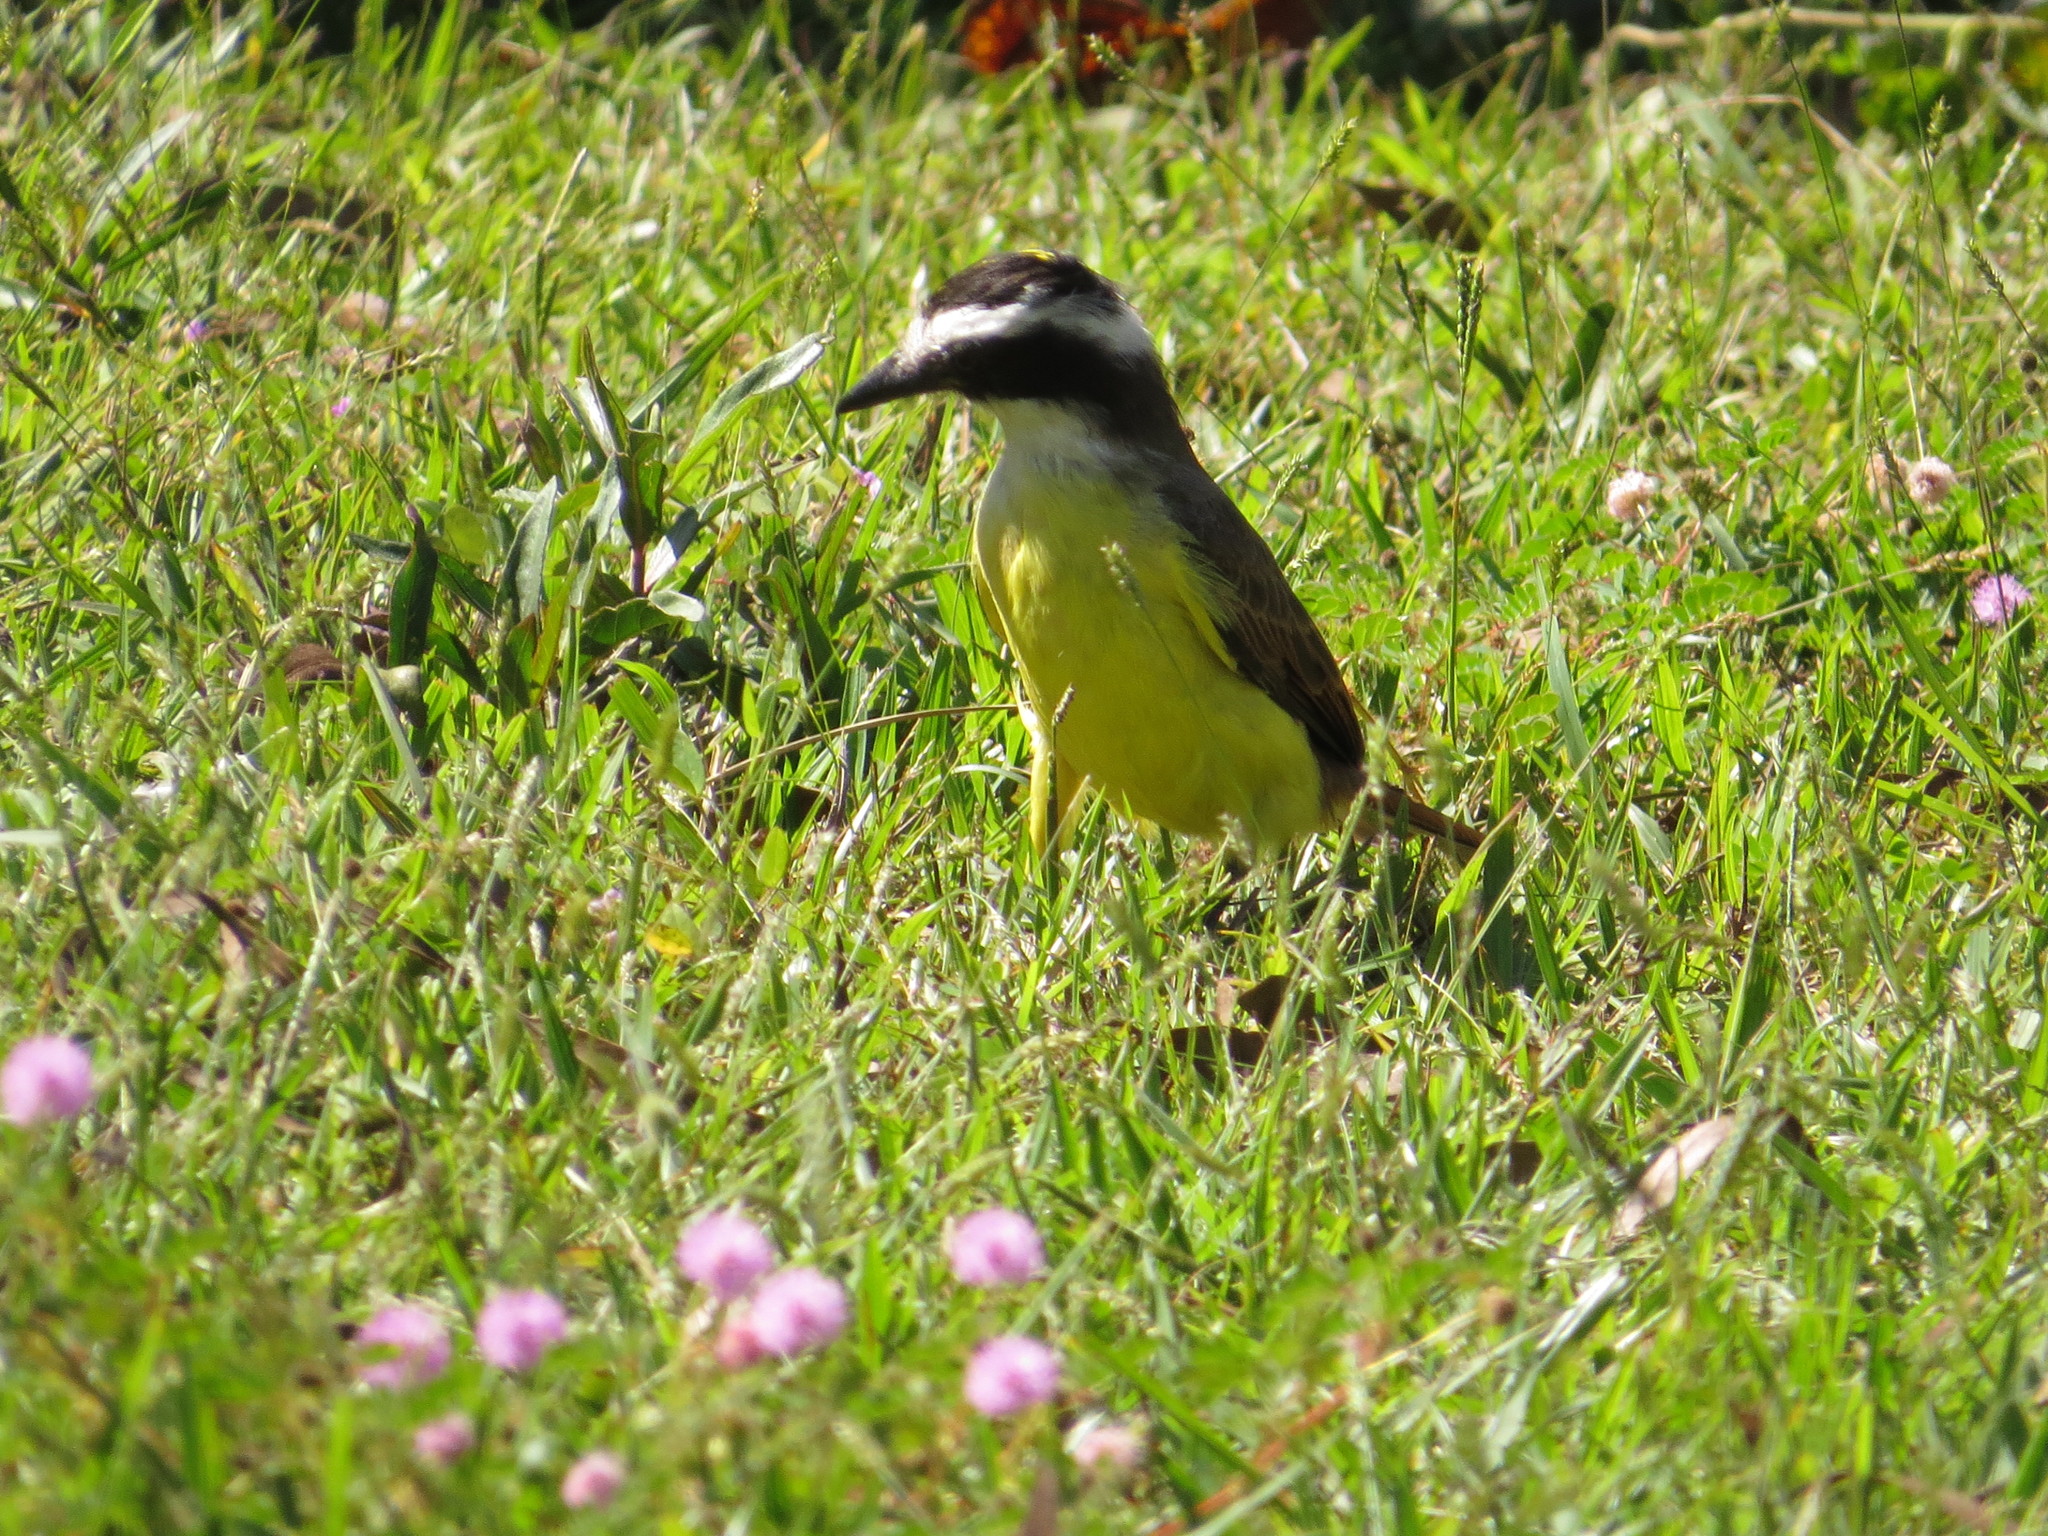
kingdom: Animalia
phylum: Chordata
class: Aves
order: Passeriformes
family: Tyrannidae
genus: Pitangus
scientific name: Pitangus sulphuratus
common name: Great kiskadee
